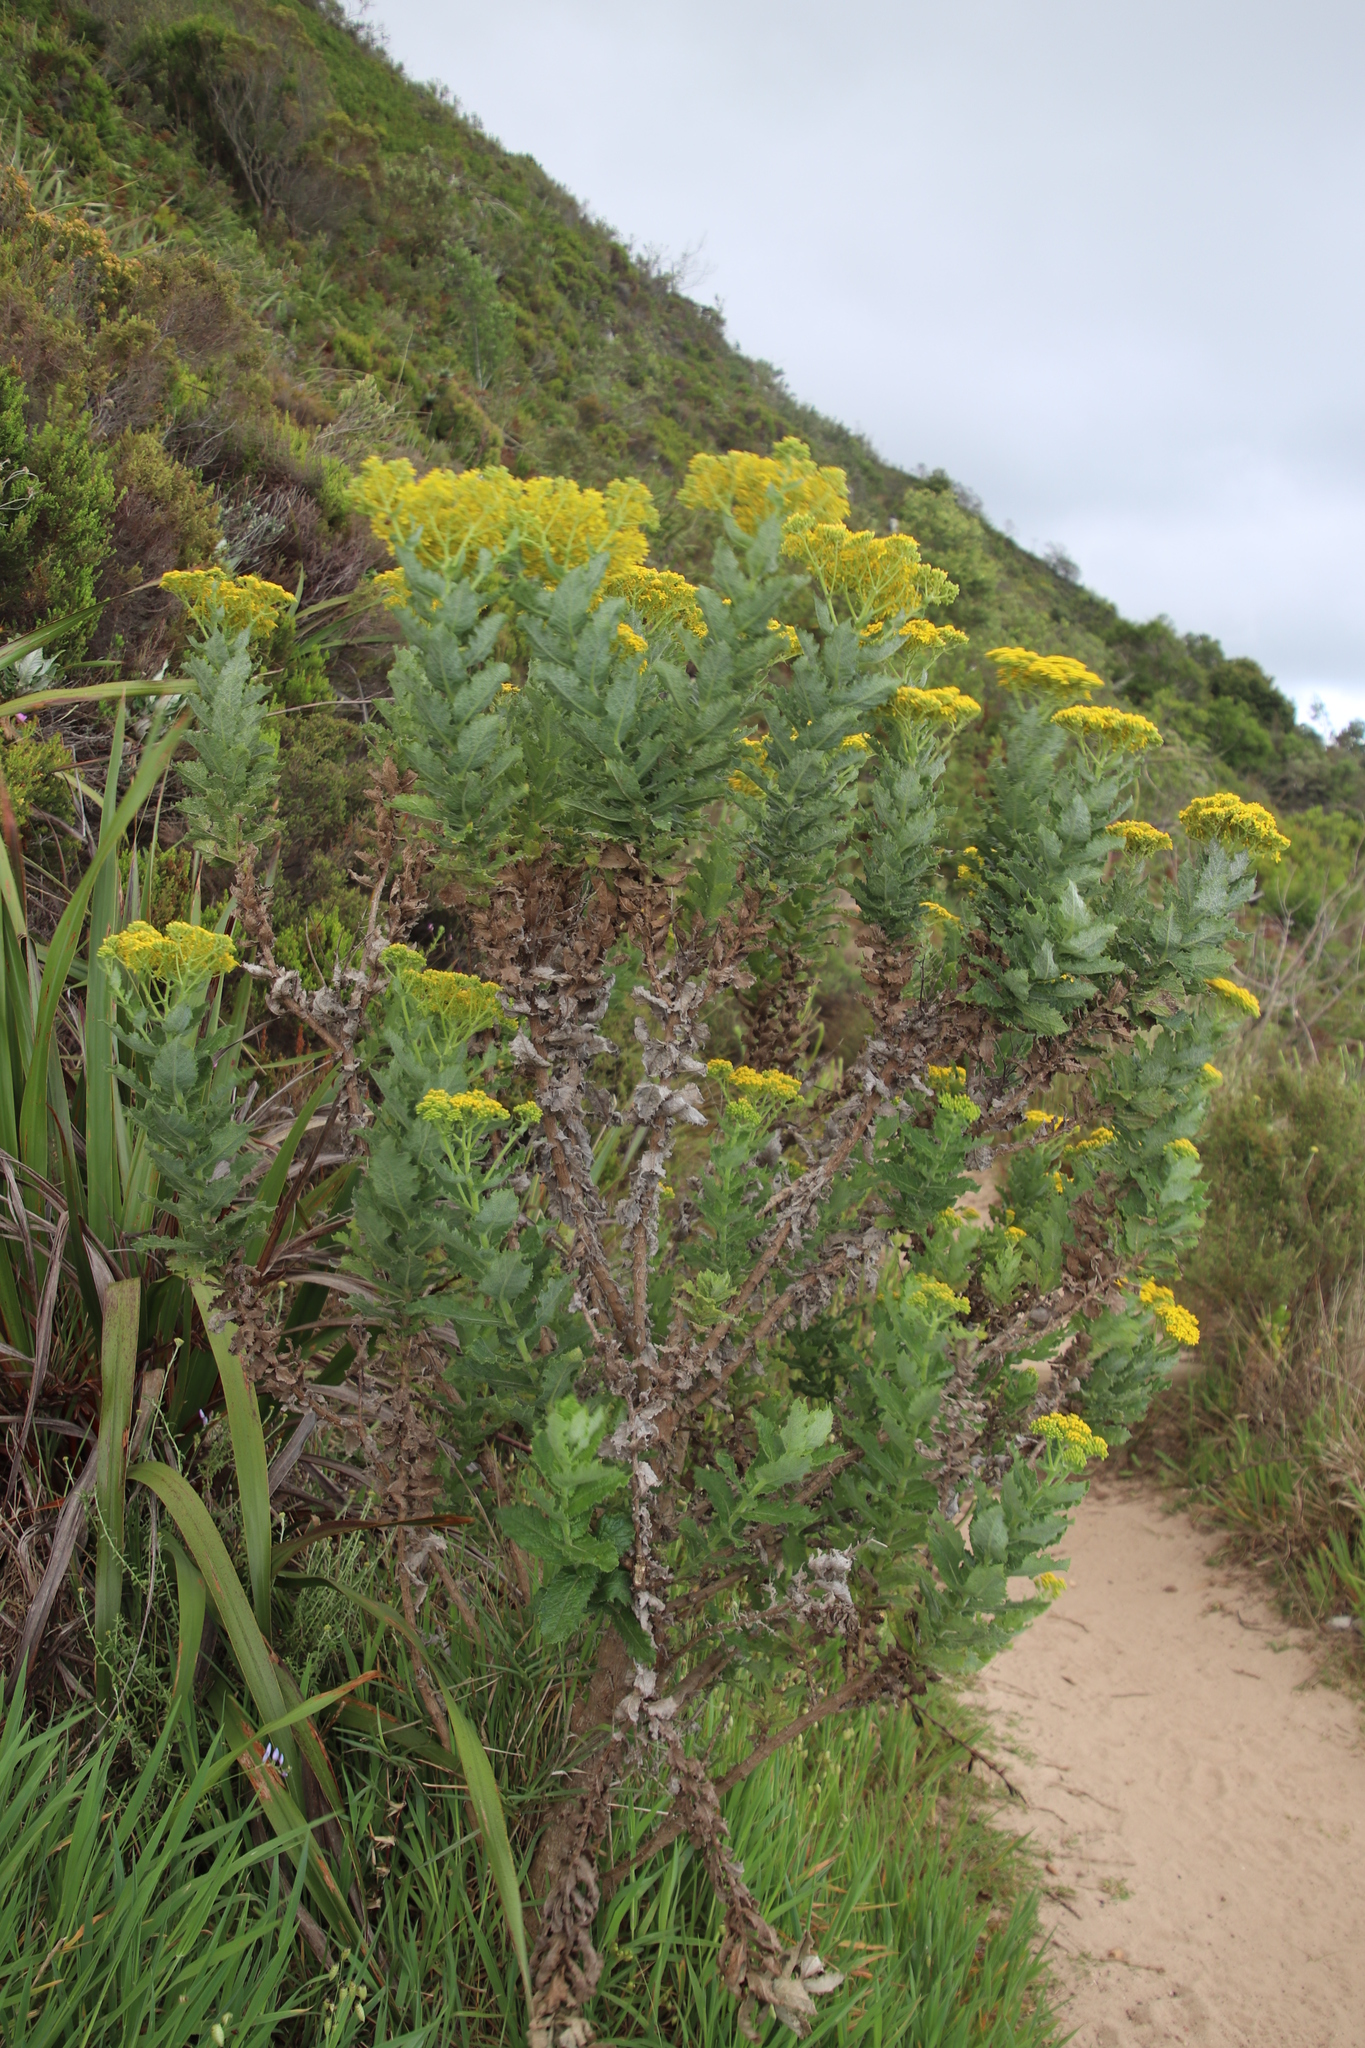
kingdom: Plantae
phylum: Tracheophyta
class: Magnoliopsida
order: Asterales
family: Asteraceae
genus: Senecio
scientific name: Senecio rigidus
